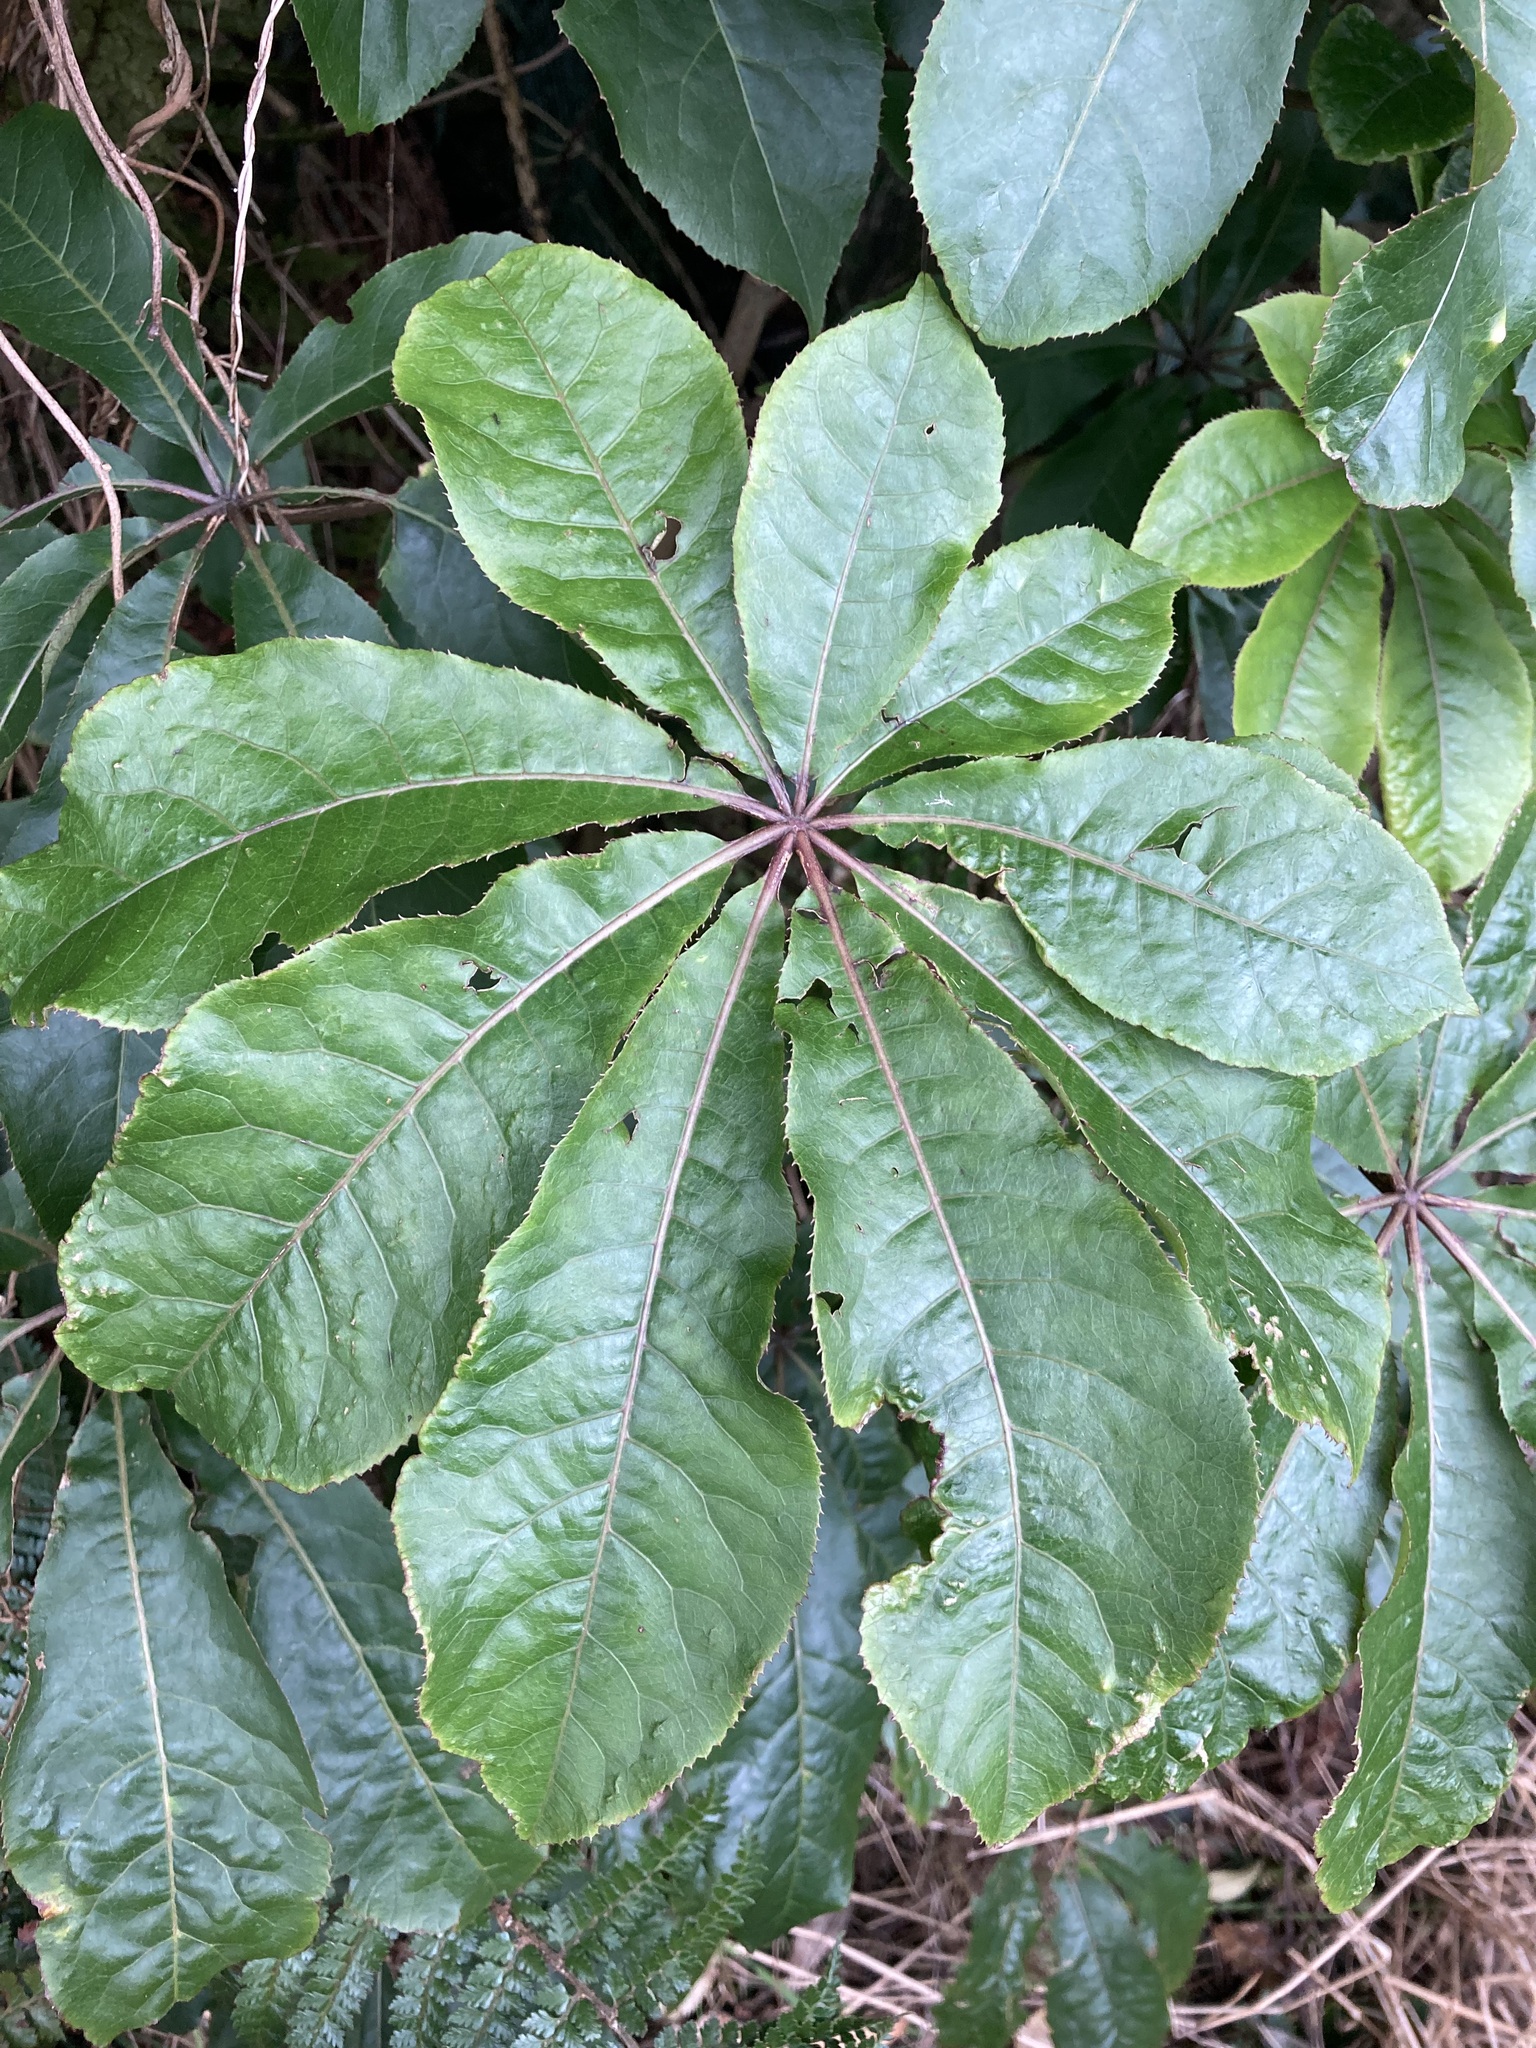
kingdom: Plantae
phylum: Tracheophyta
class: Magnoliopsida
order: Apiales
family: Araliaceae
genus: Schefflera
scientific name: Schefflera digitata
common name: Pate
